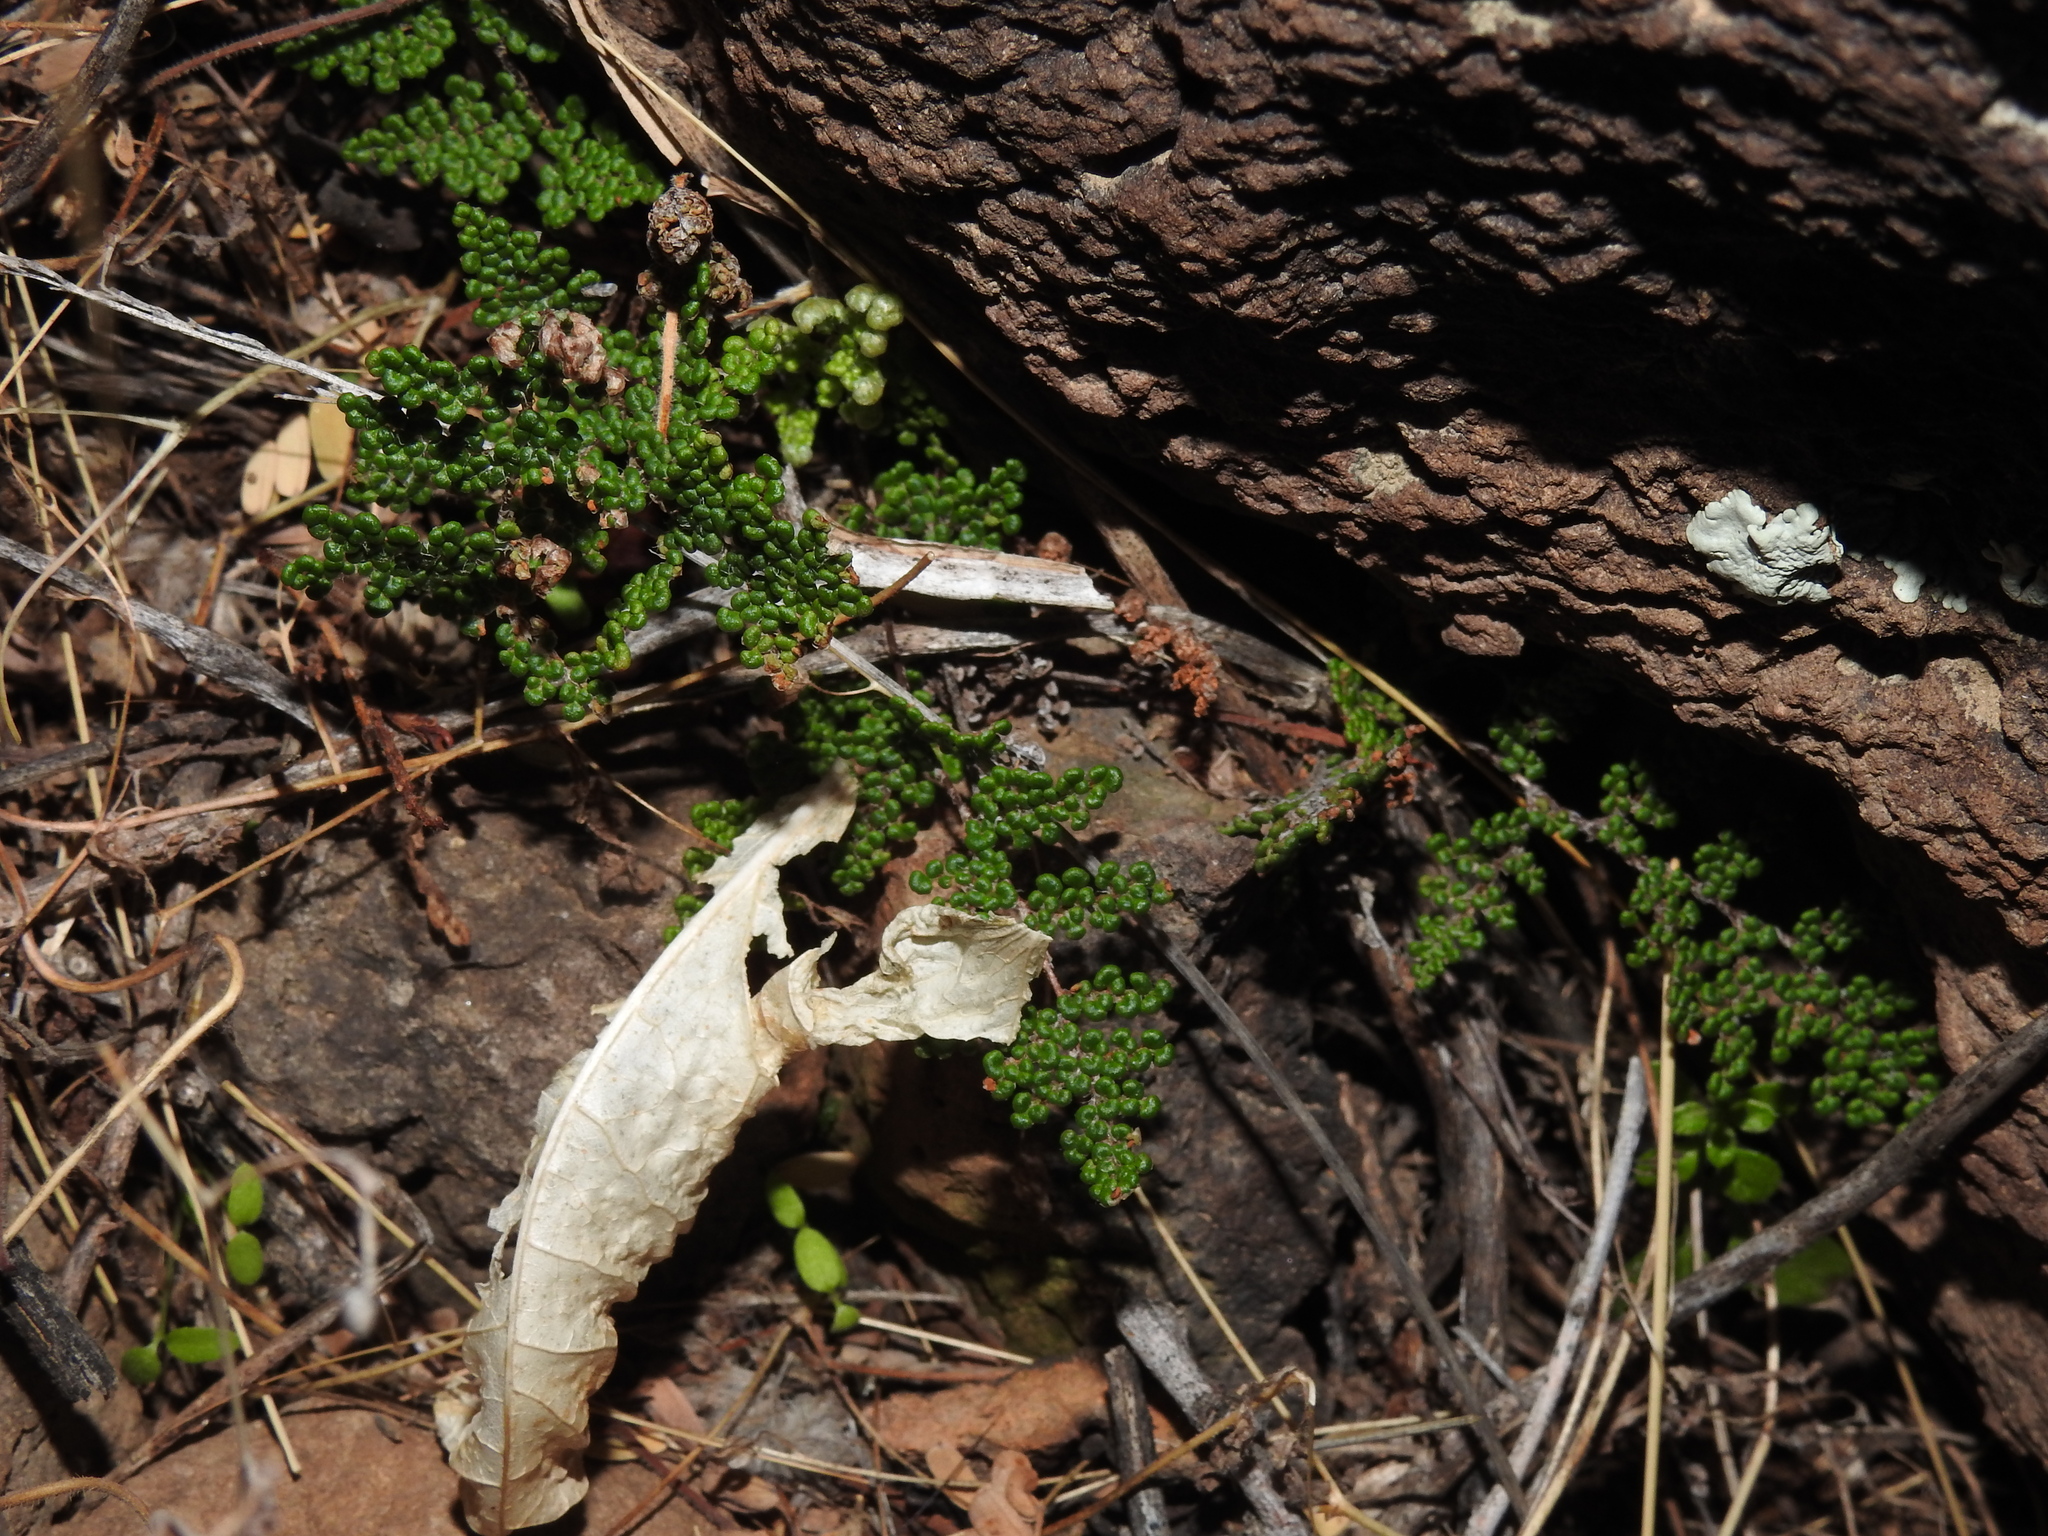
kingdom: Plantae
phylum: Tracheophyta
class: Polypodiopsida
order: Polypodiales
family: Pteridaceae
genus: Myriopteris
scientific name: Myriopteris covillei
